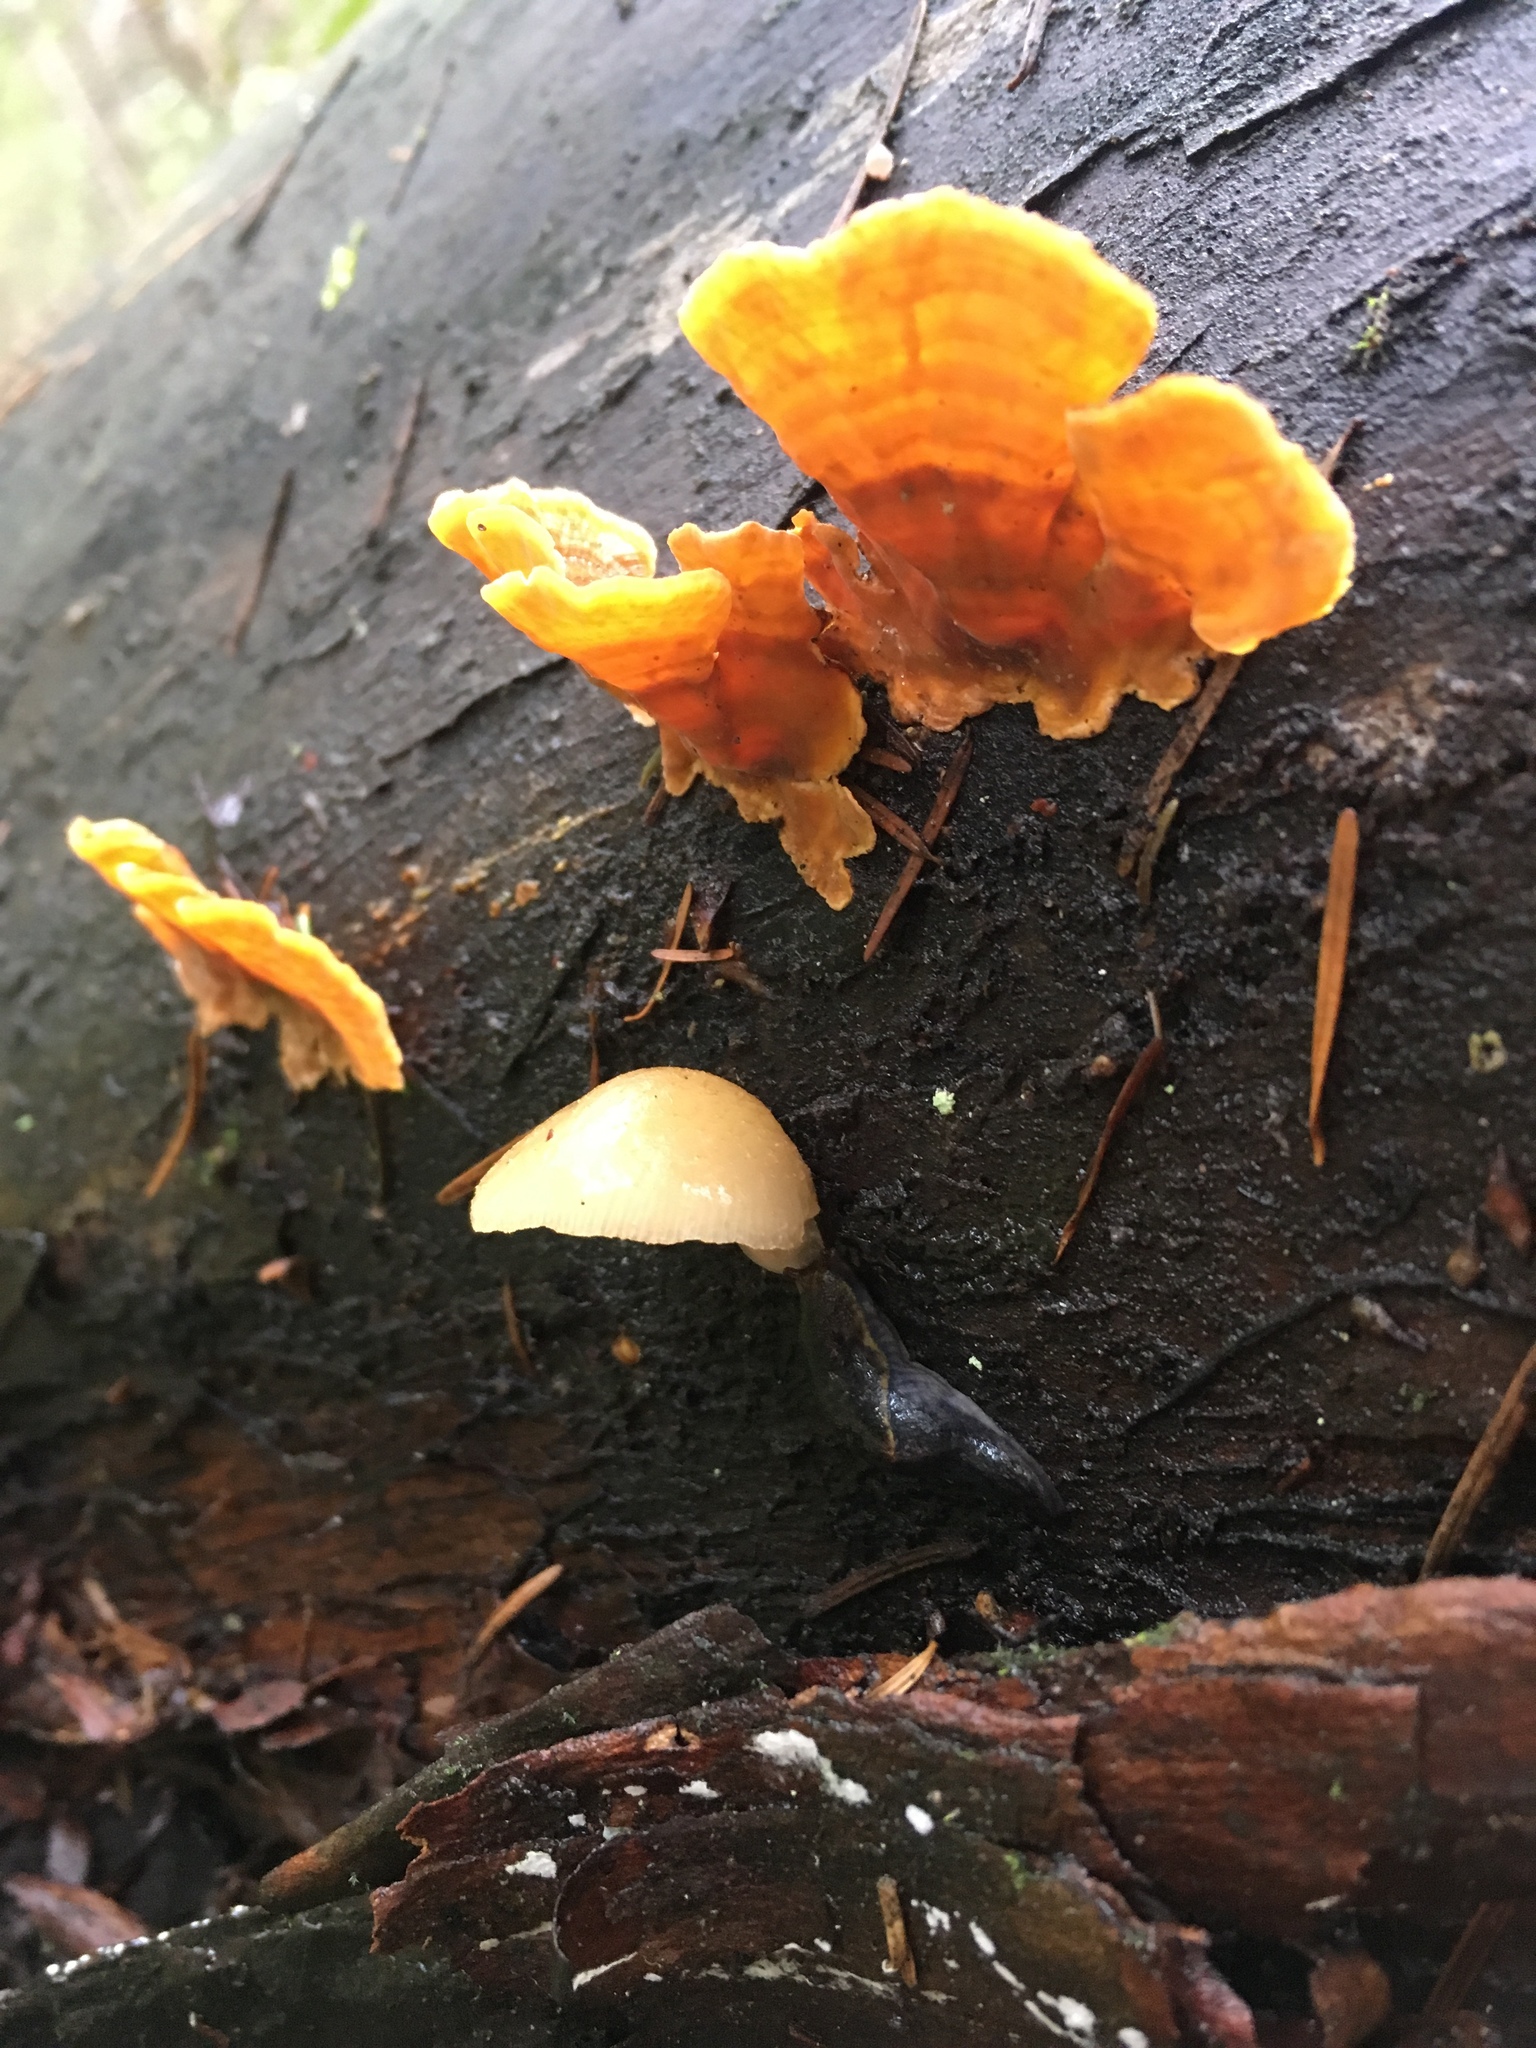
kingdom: Animalia
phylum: Mollusca
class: Gastropoda
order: Stylommatophora
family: Ariolimacidae
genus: Prophysaon
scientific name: Prophysaon foliolatum
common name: Yellow-bordered taildropper
